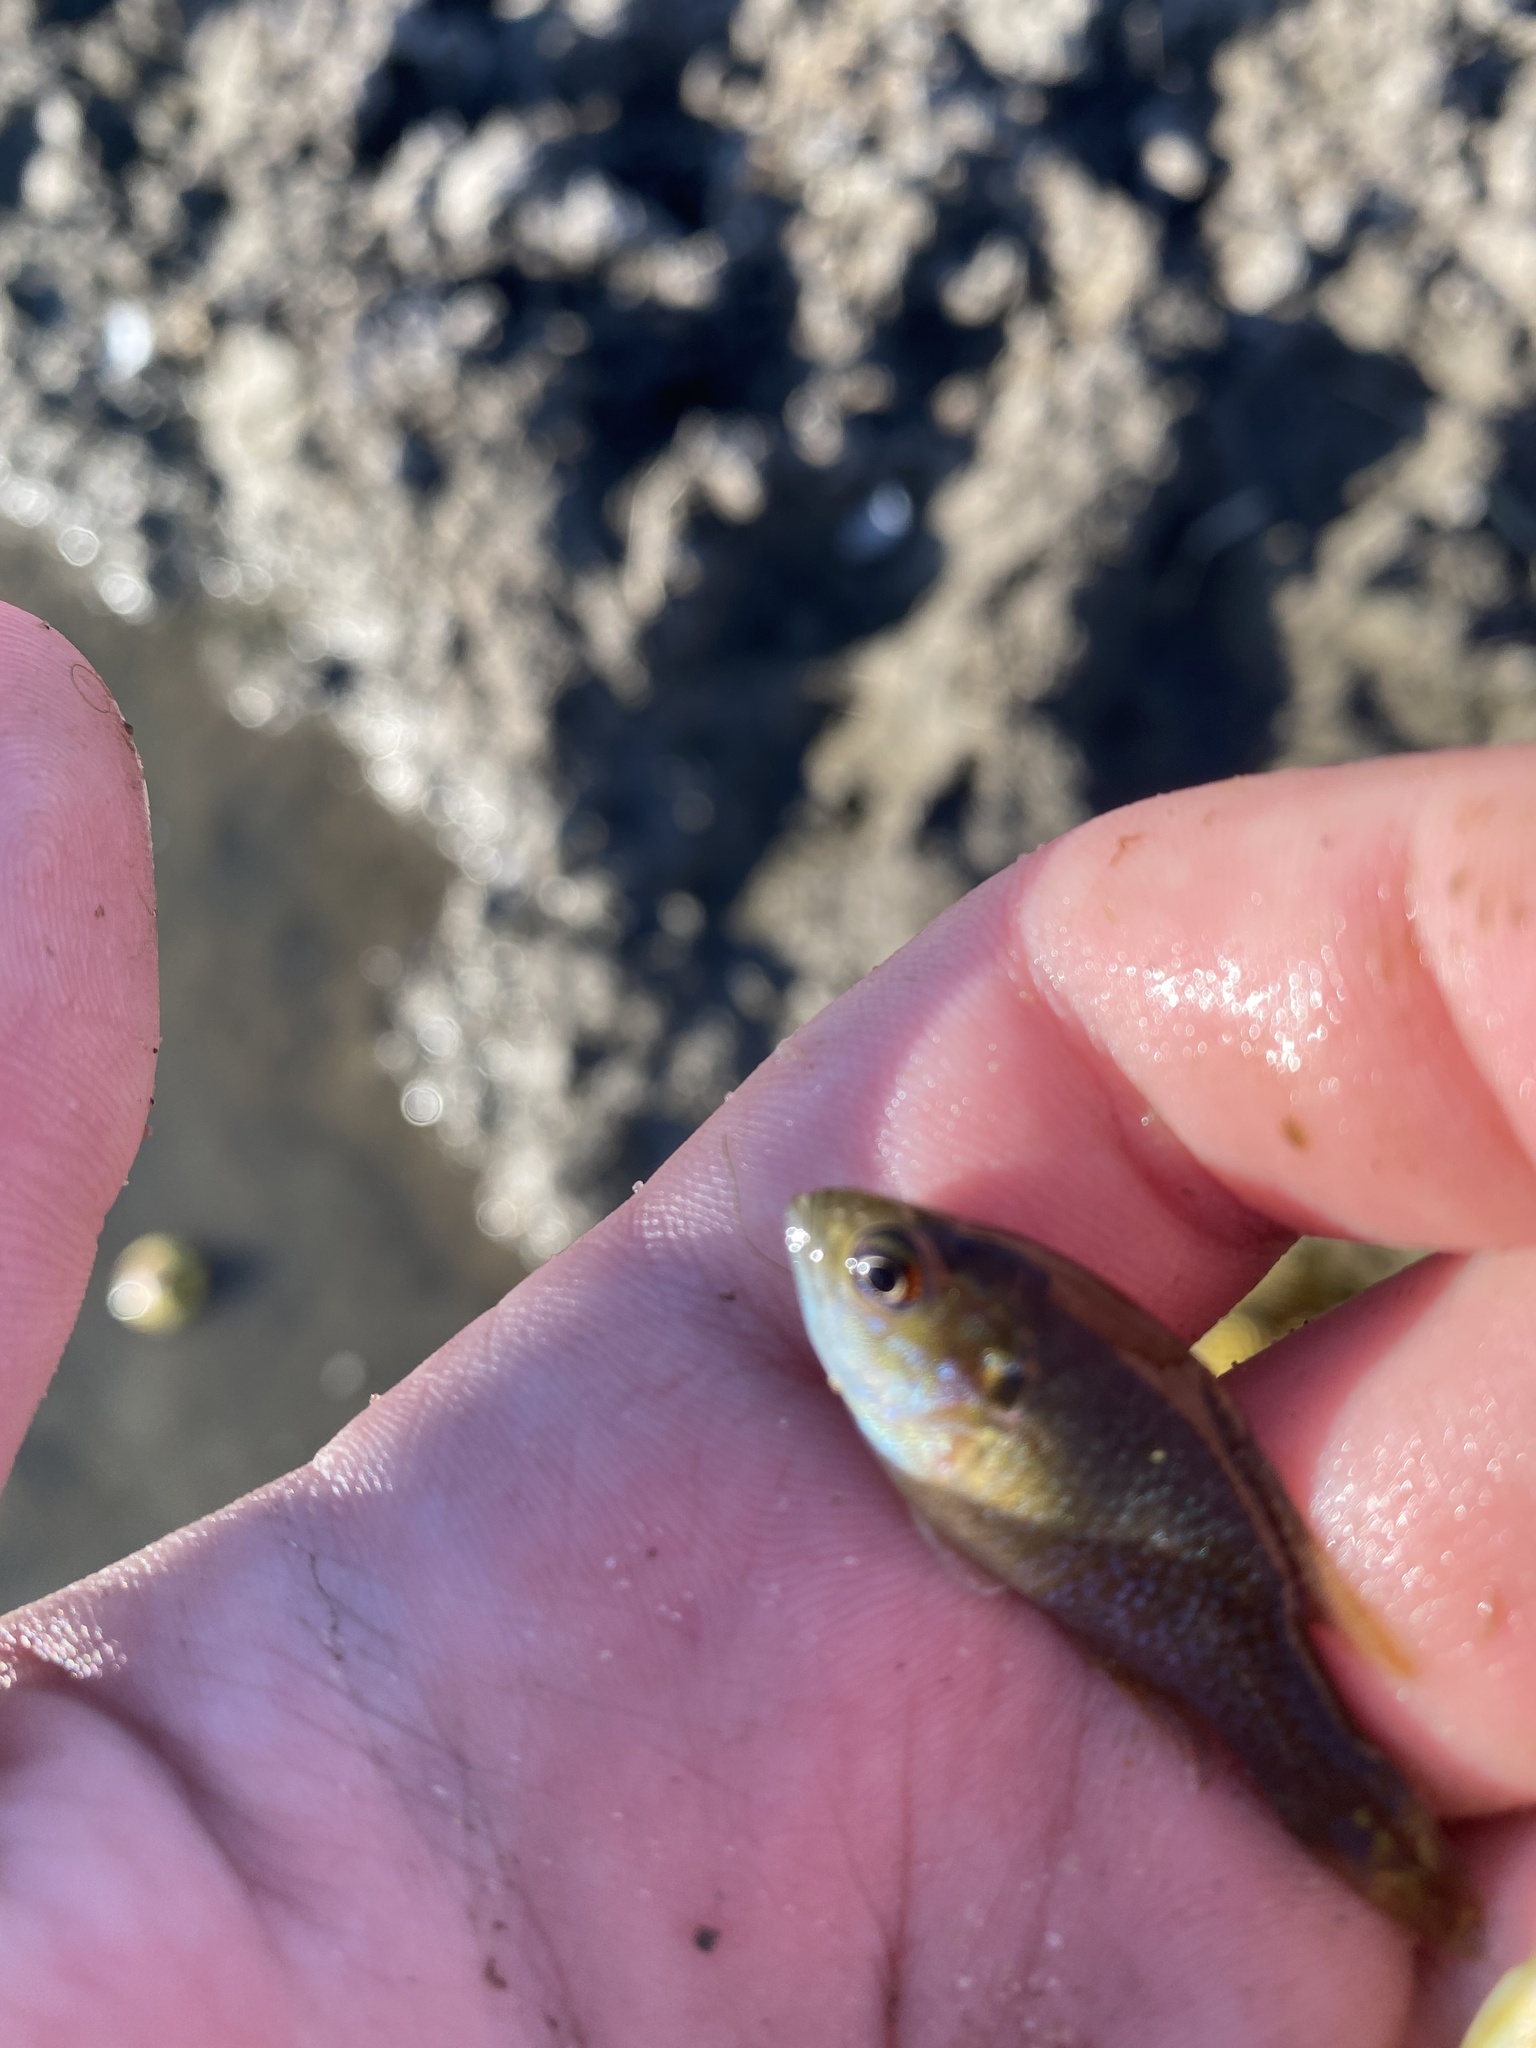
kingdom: Animalia
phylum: Chordata
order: Perciformes
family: Centrarchidae
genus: Lepomis
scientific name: Lepomis cyanellus
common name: Green sunfish
